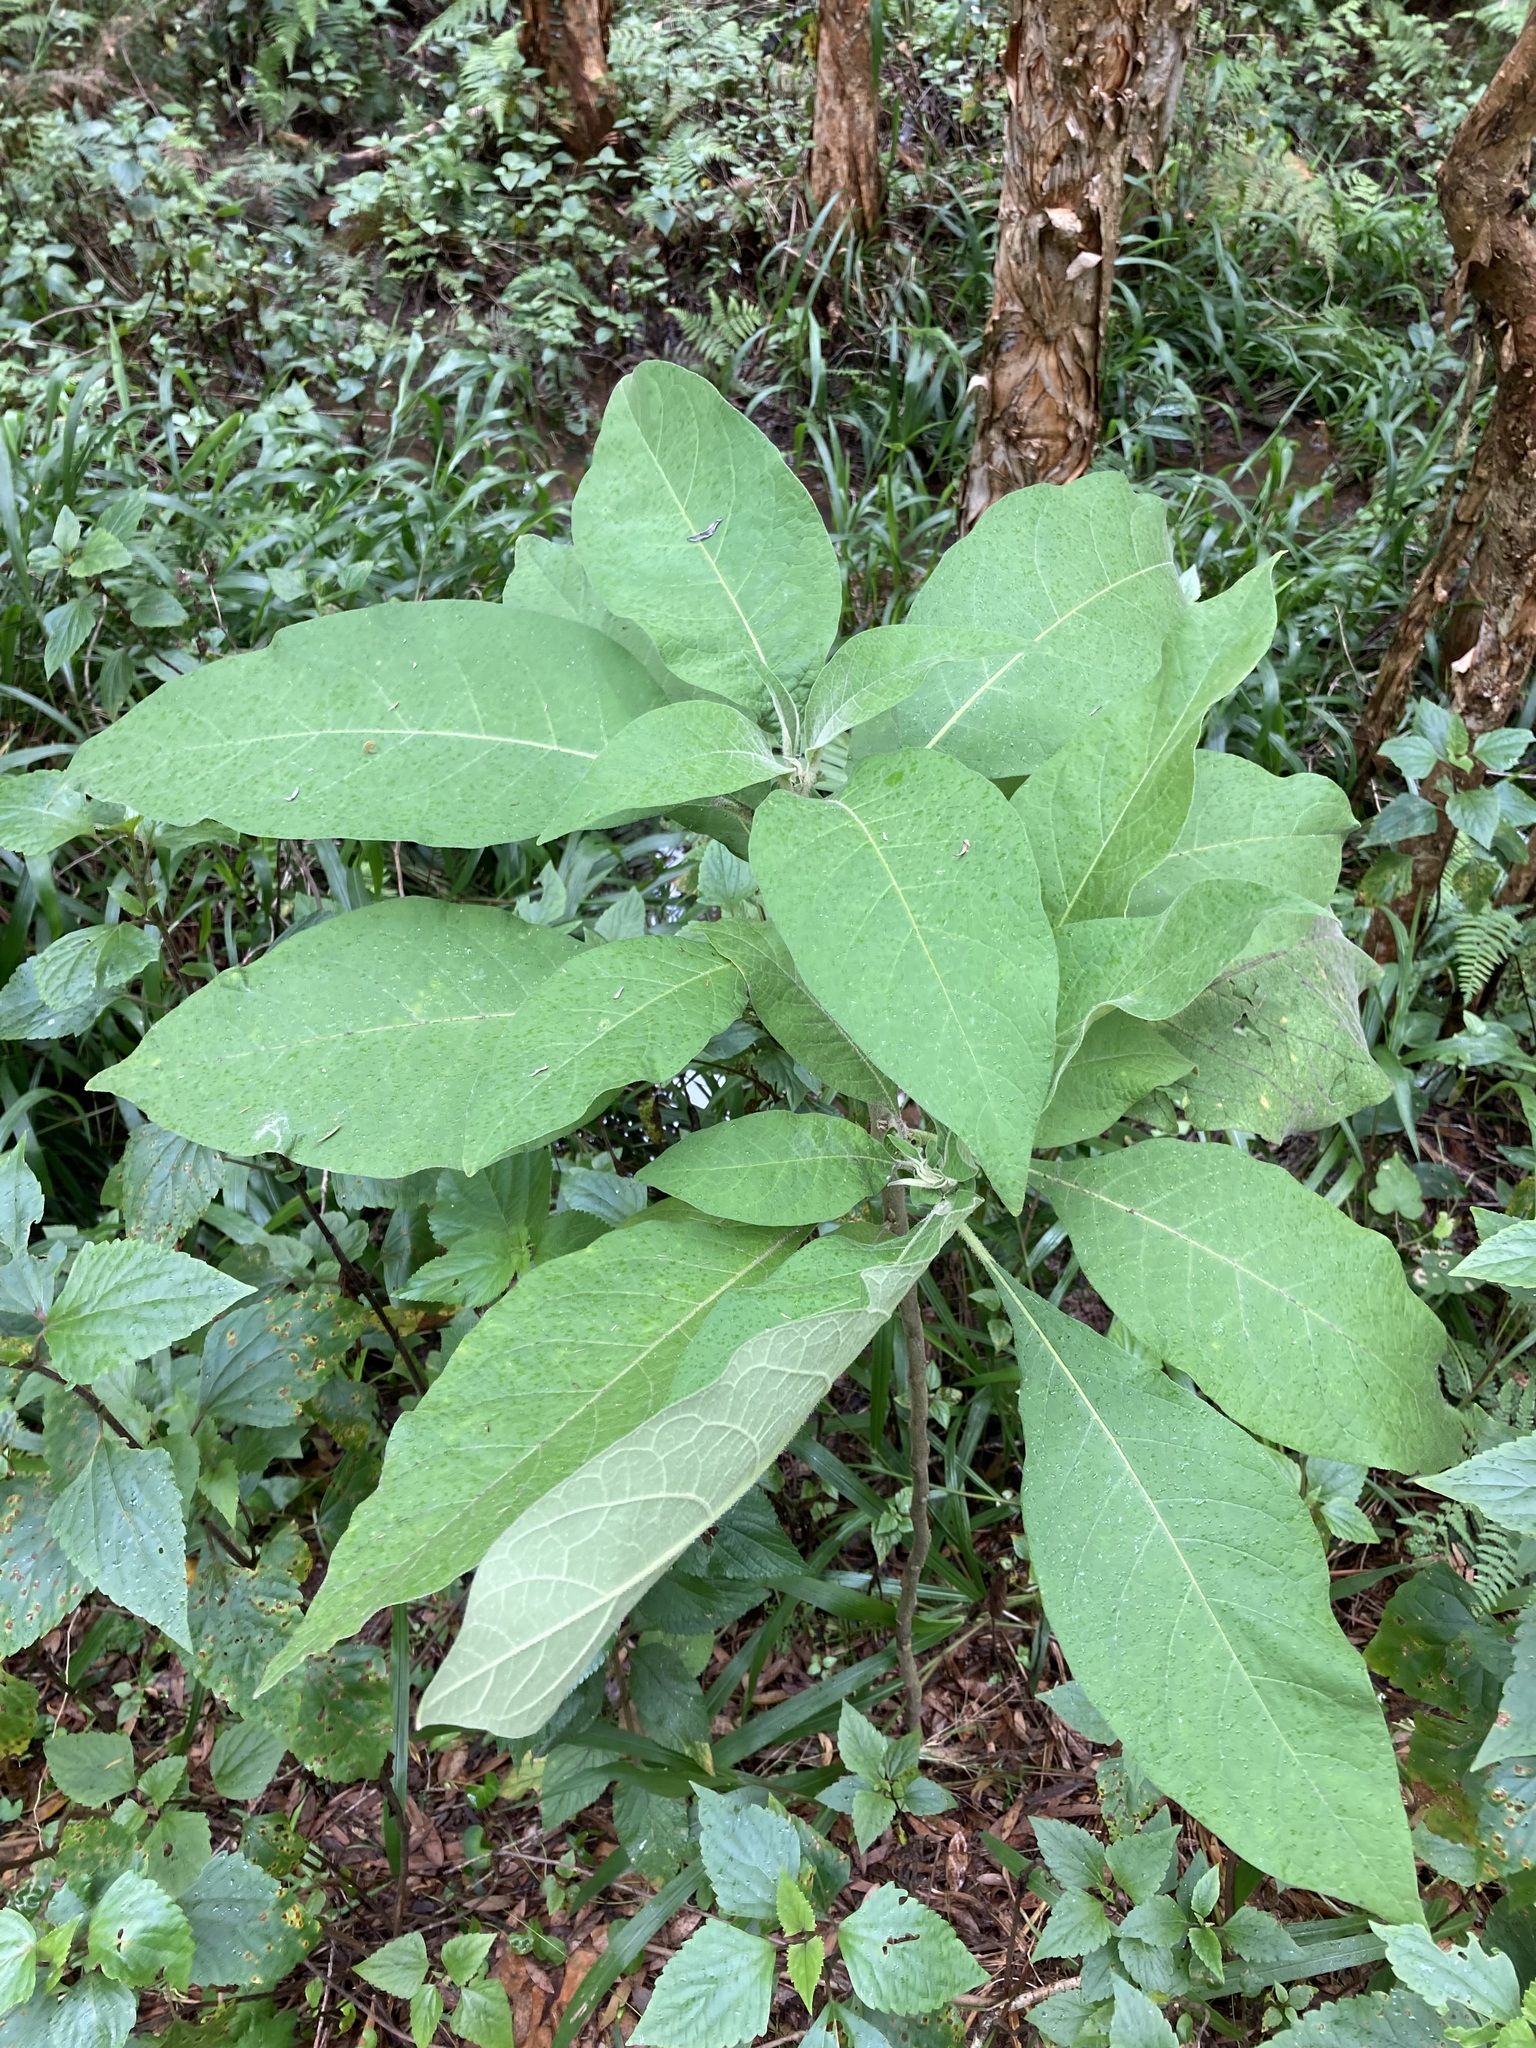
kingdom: Plantae
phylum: Tracheophyta
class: Magnoliopsida
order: Solanales
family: Solanaceae
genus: Solanum
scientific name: Solanum mauritianum
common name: Earleaf nightshade
